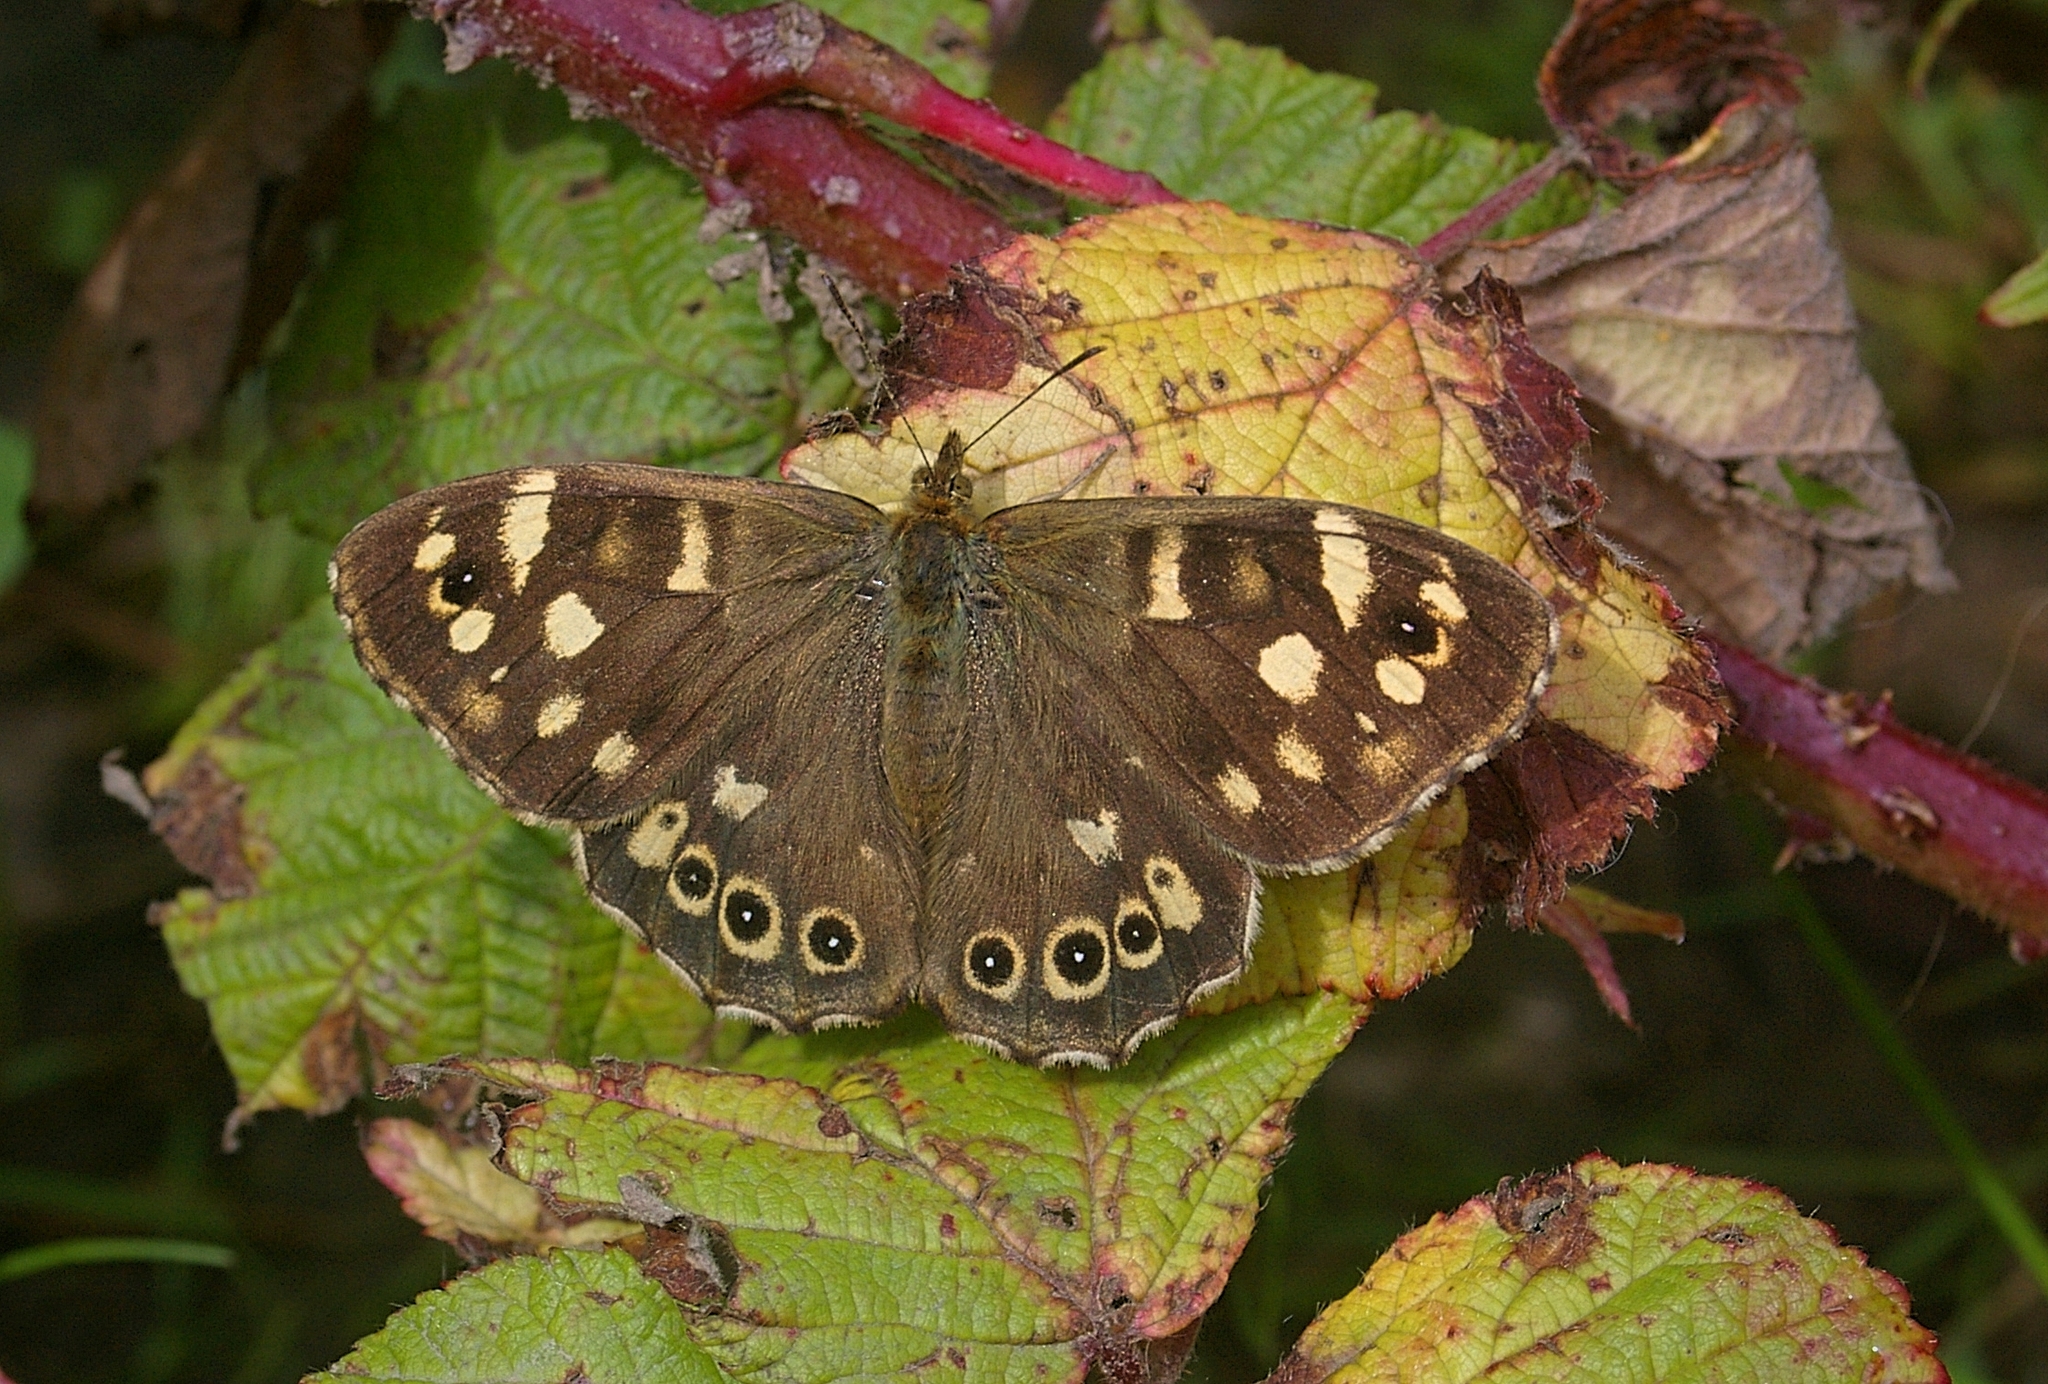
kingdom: Animalia
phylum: Arthropoda
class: Insecta
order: Lepidoptera
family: Nymphalidae
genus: Pararge
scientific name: Pararge aegeria
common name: Speckled wood
